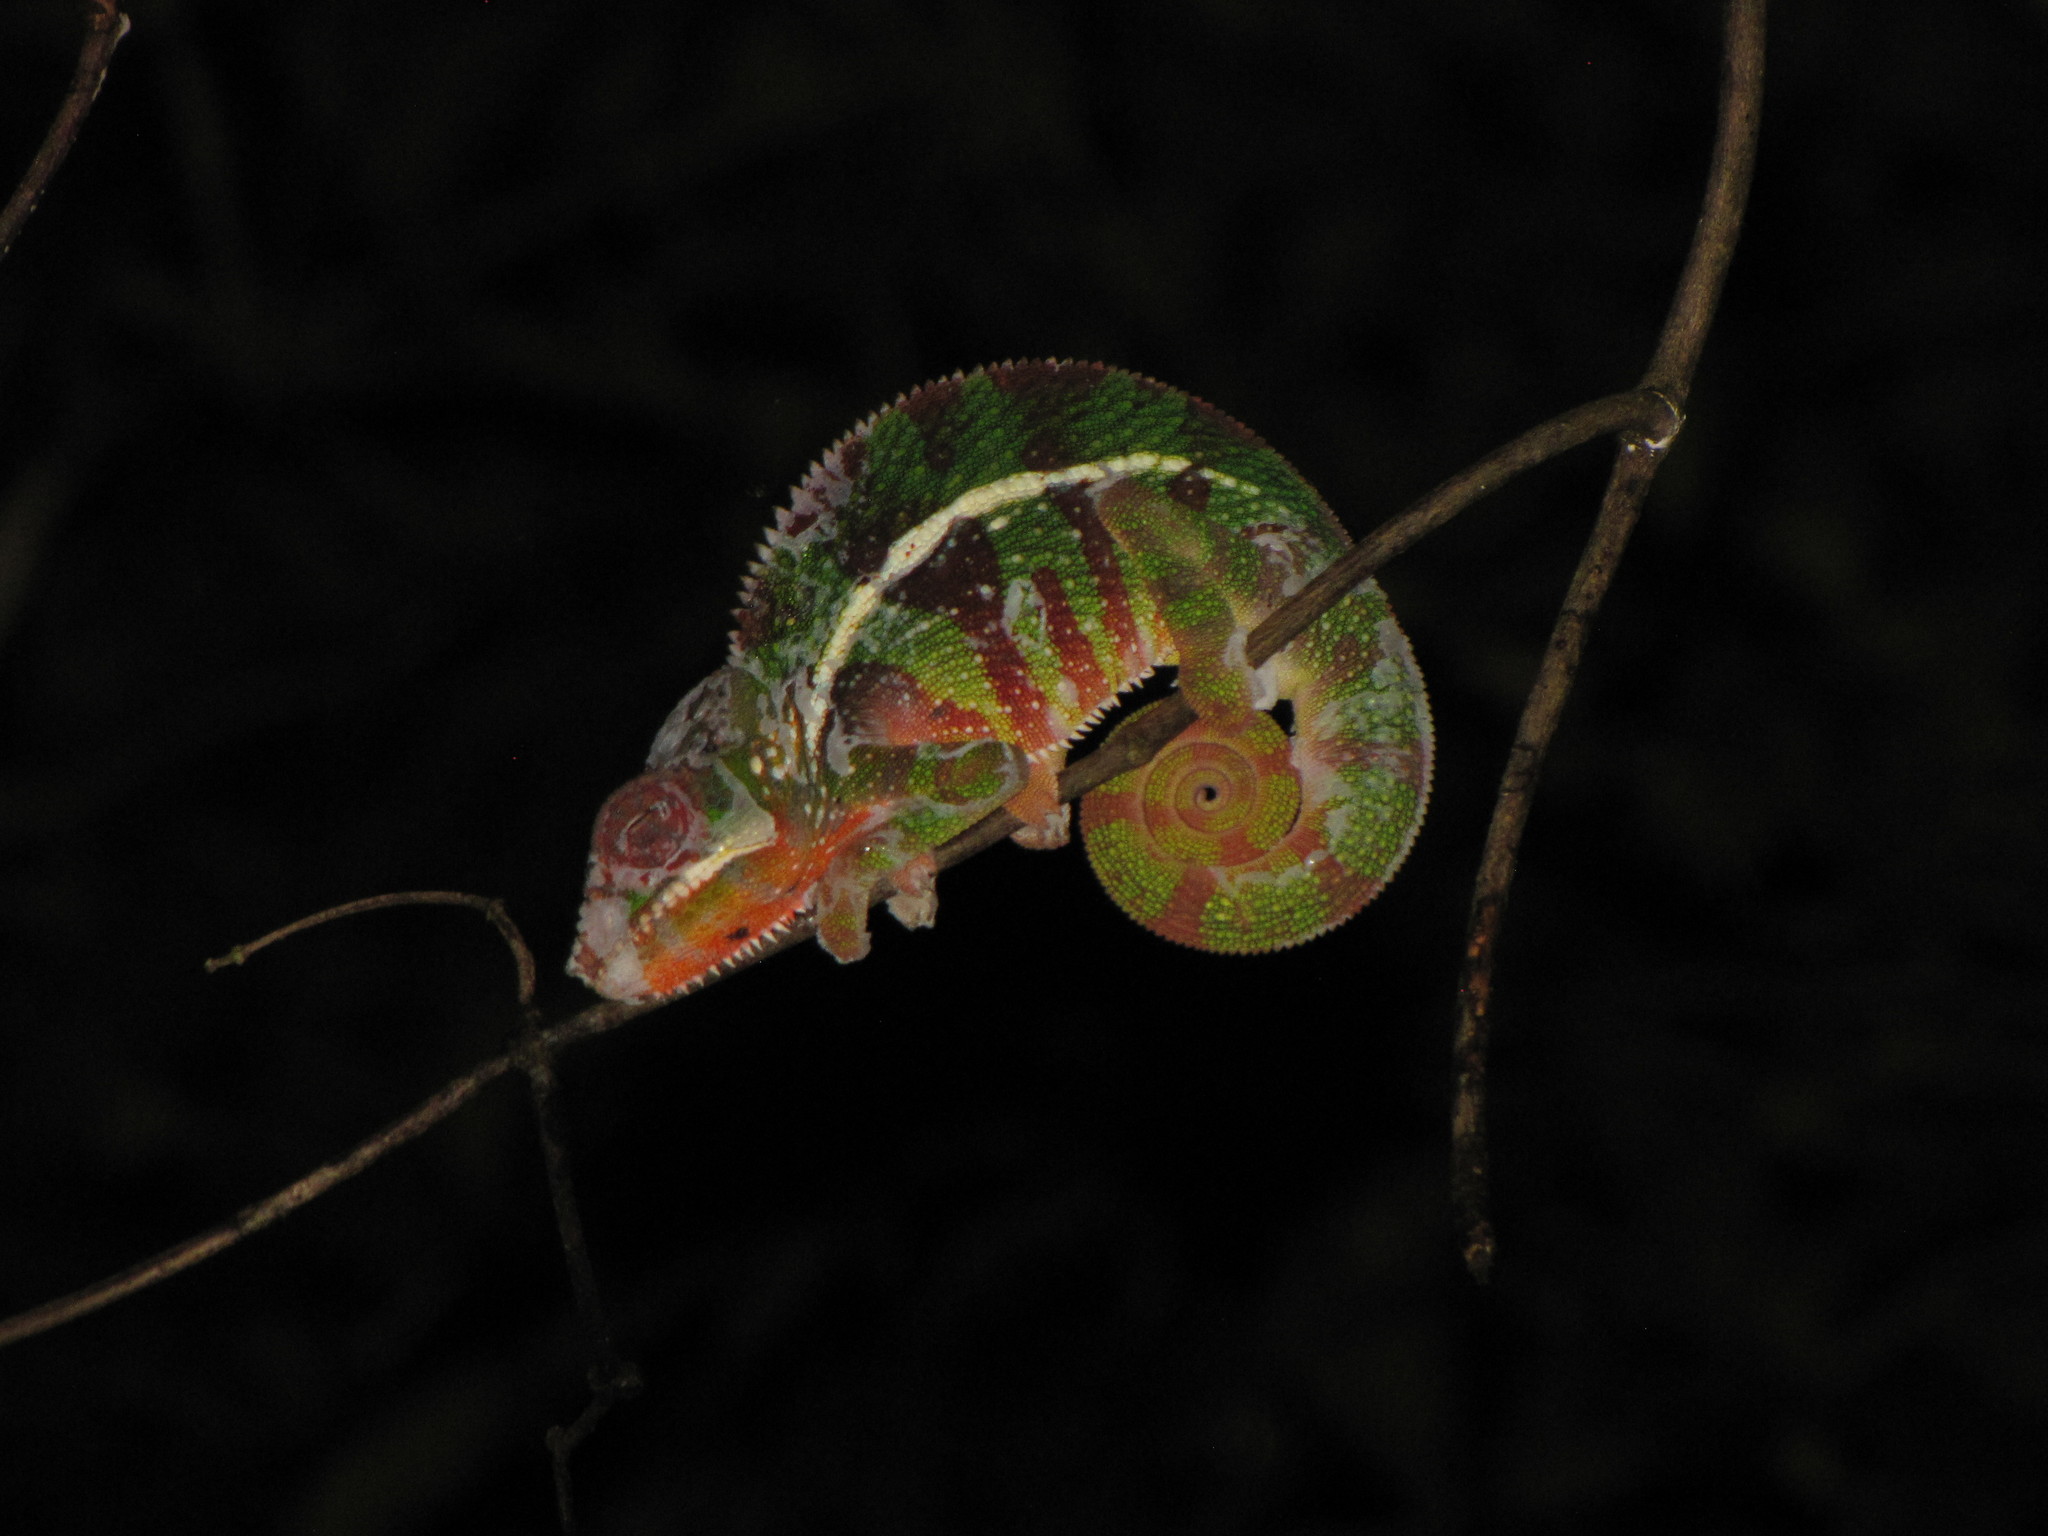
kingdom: Animalia
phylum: Chordata
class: Squamata
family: Chamaeleonidae
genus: Furcifer
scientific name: Furcifer pardalis
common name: Panther chameleon
